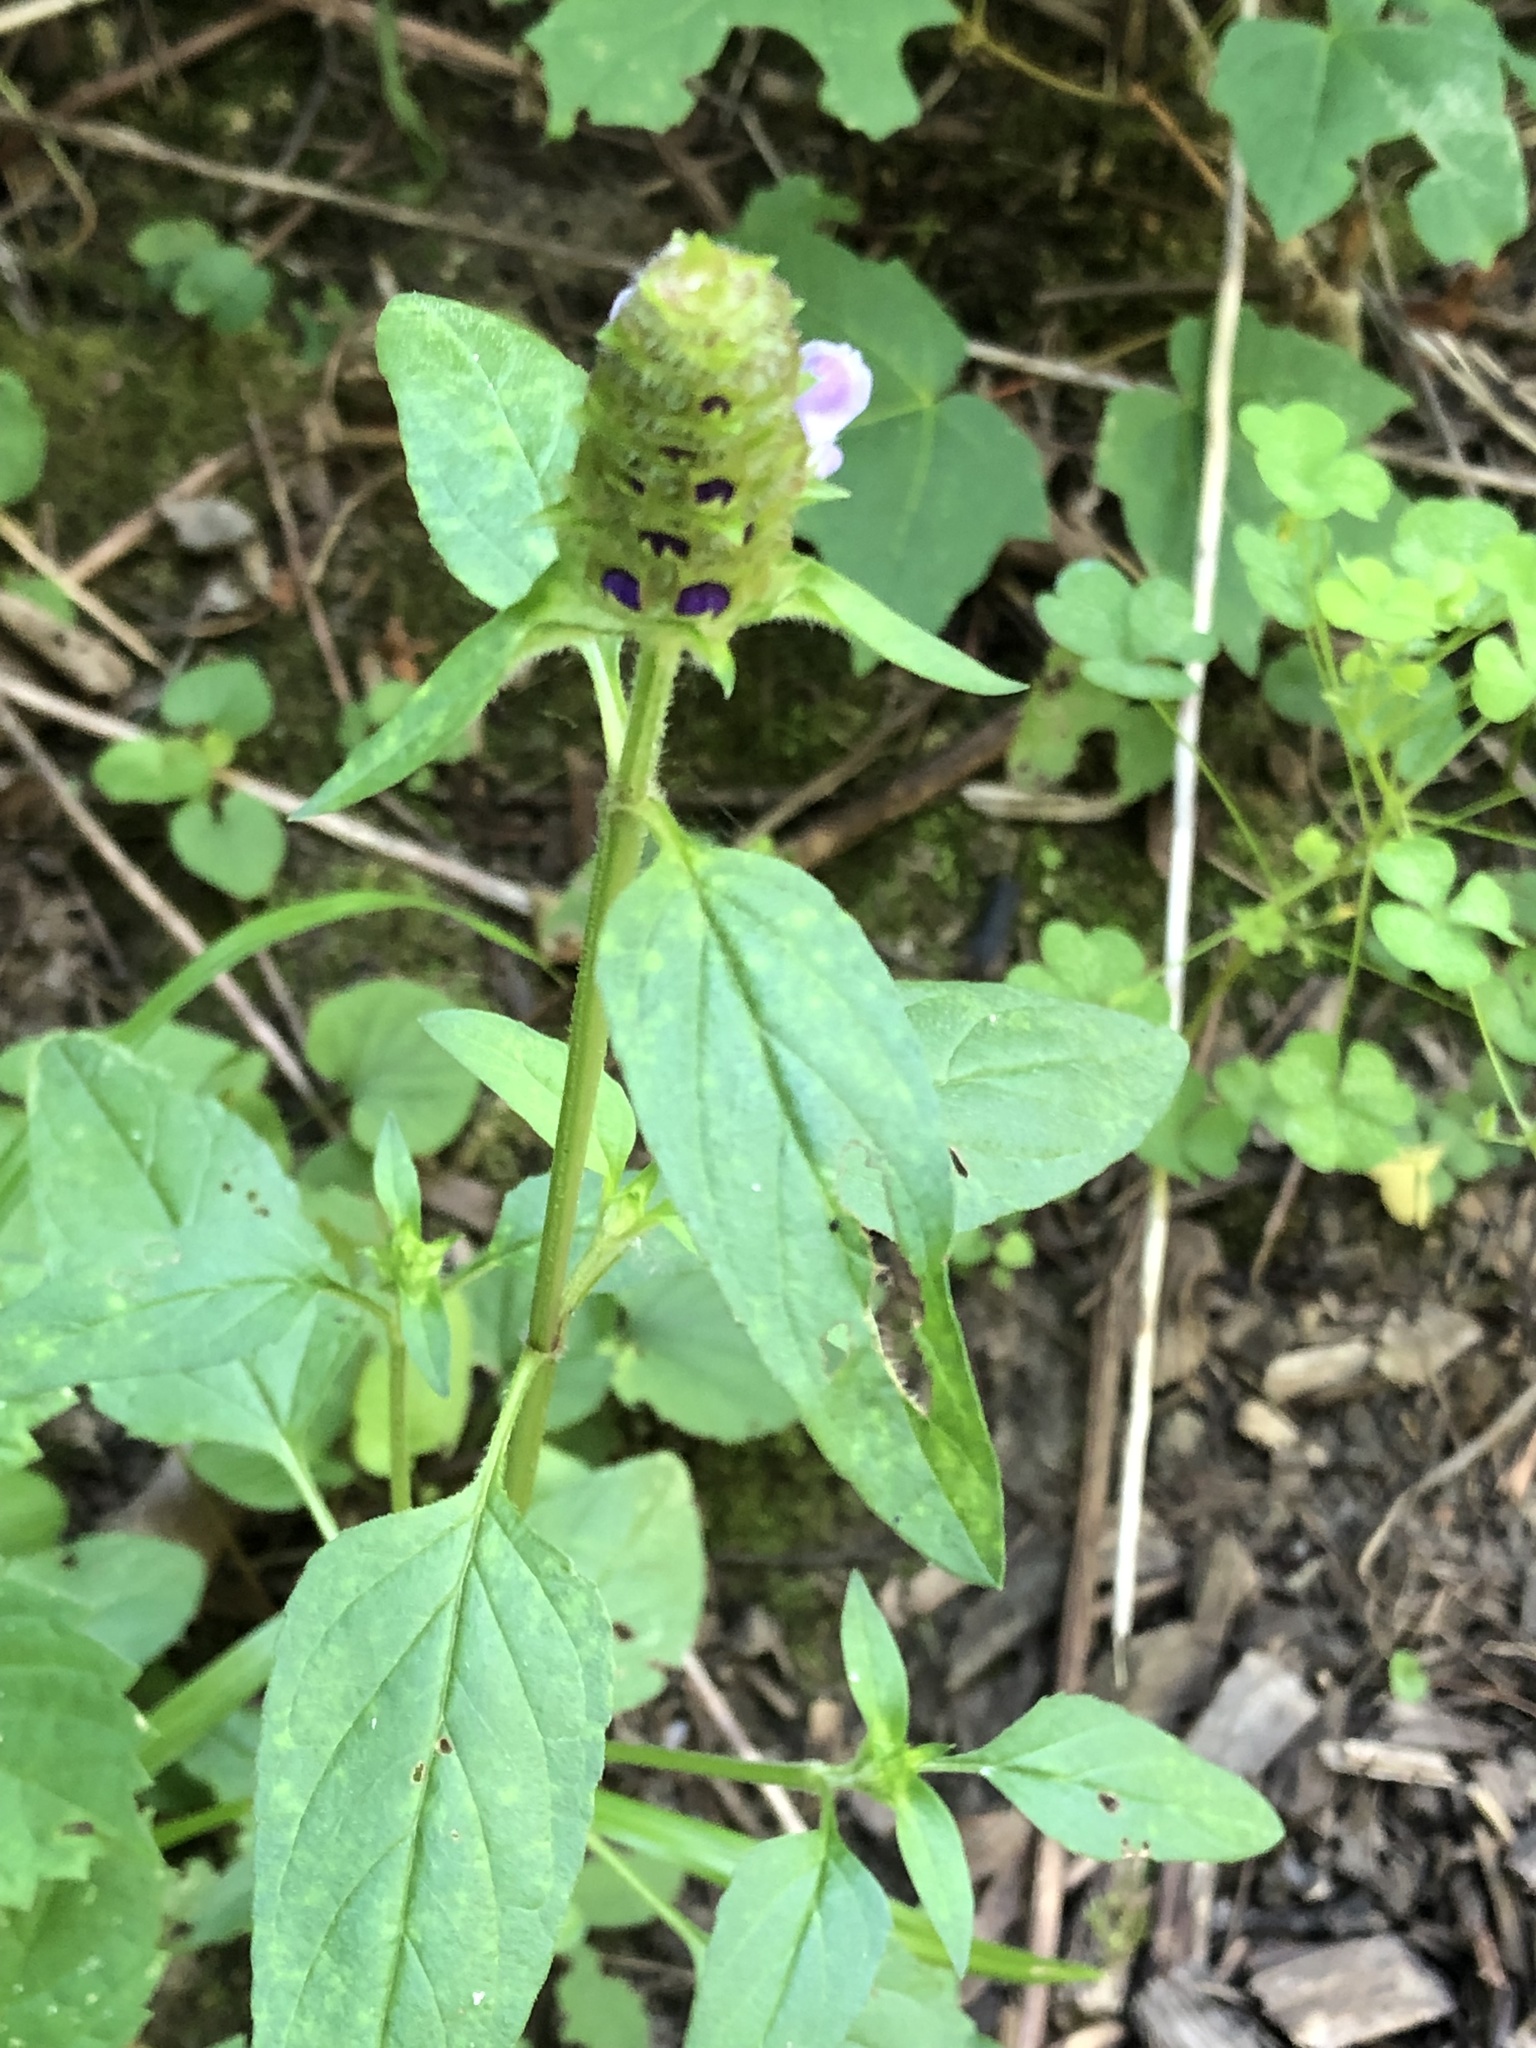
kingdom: Plantae
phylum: Tracheophyta
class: Magnoliopsida
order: Lamiales
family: Lamiaceae
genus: Prunella
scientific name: Prunella vulgaris
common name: Heal-all
